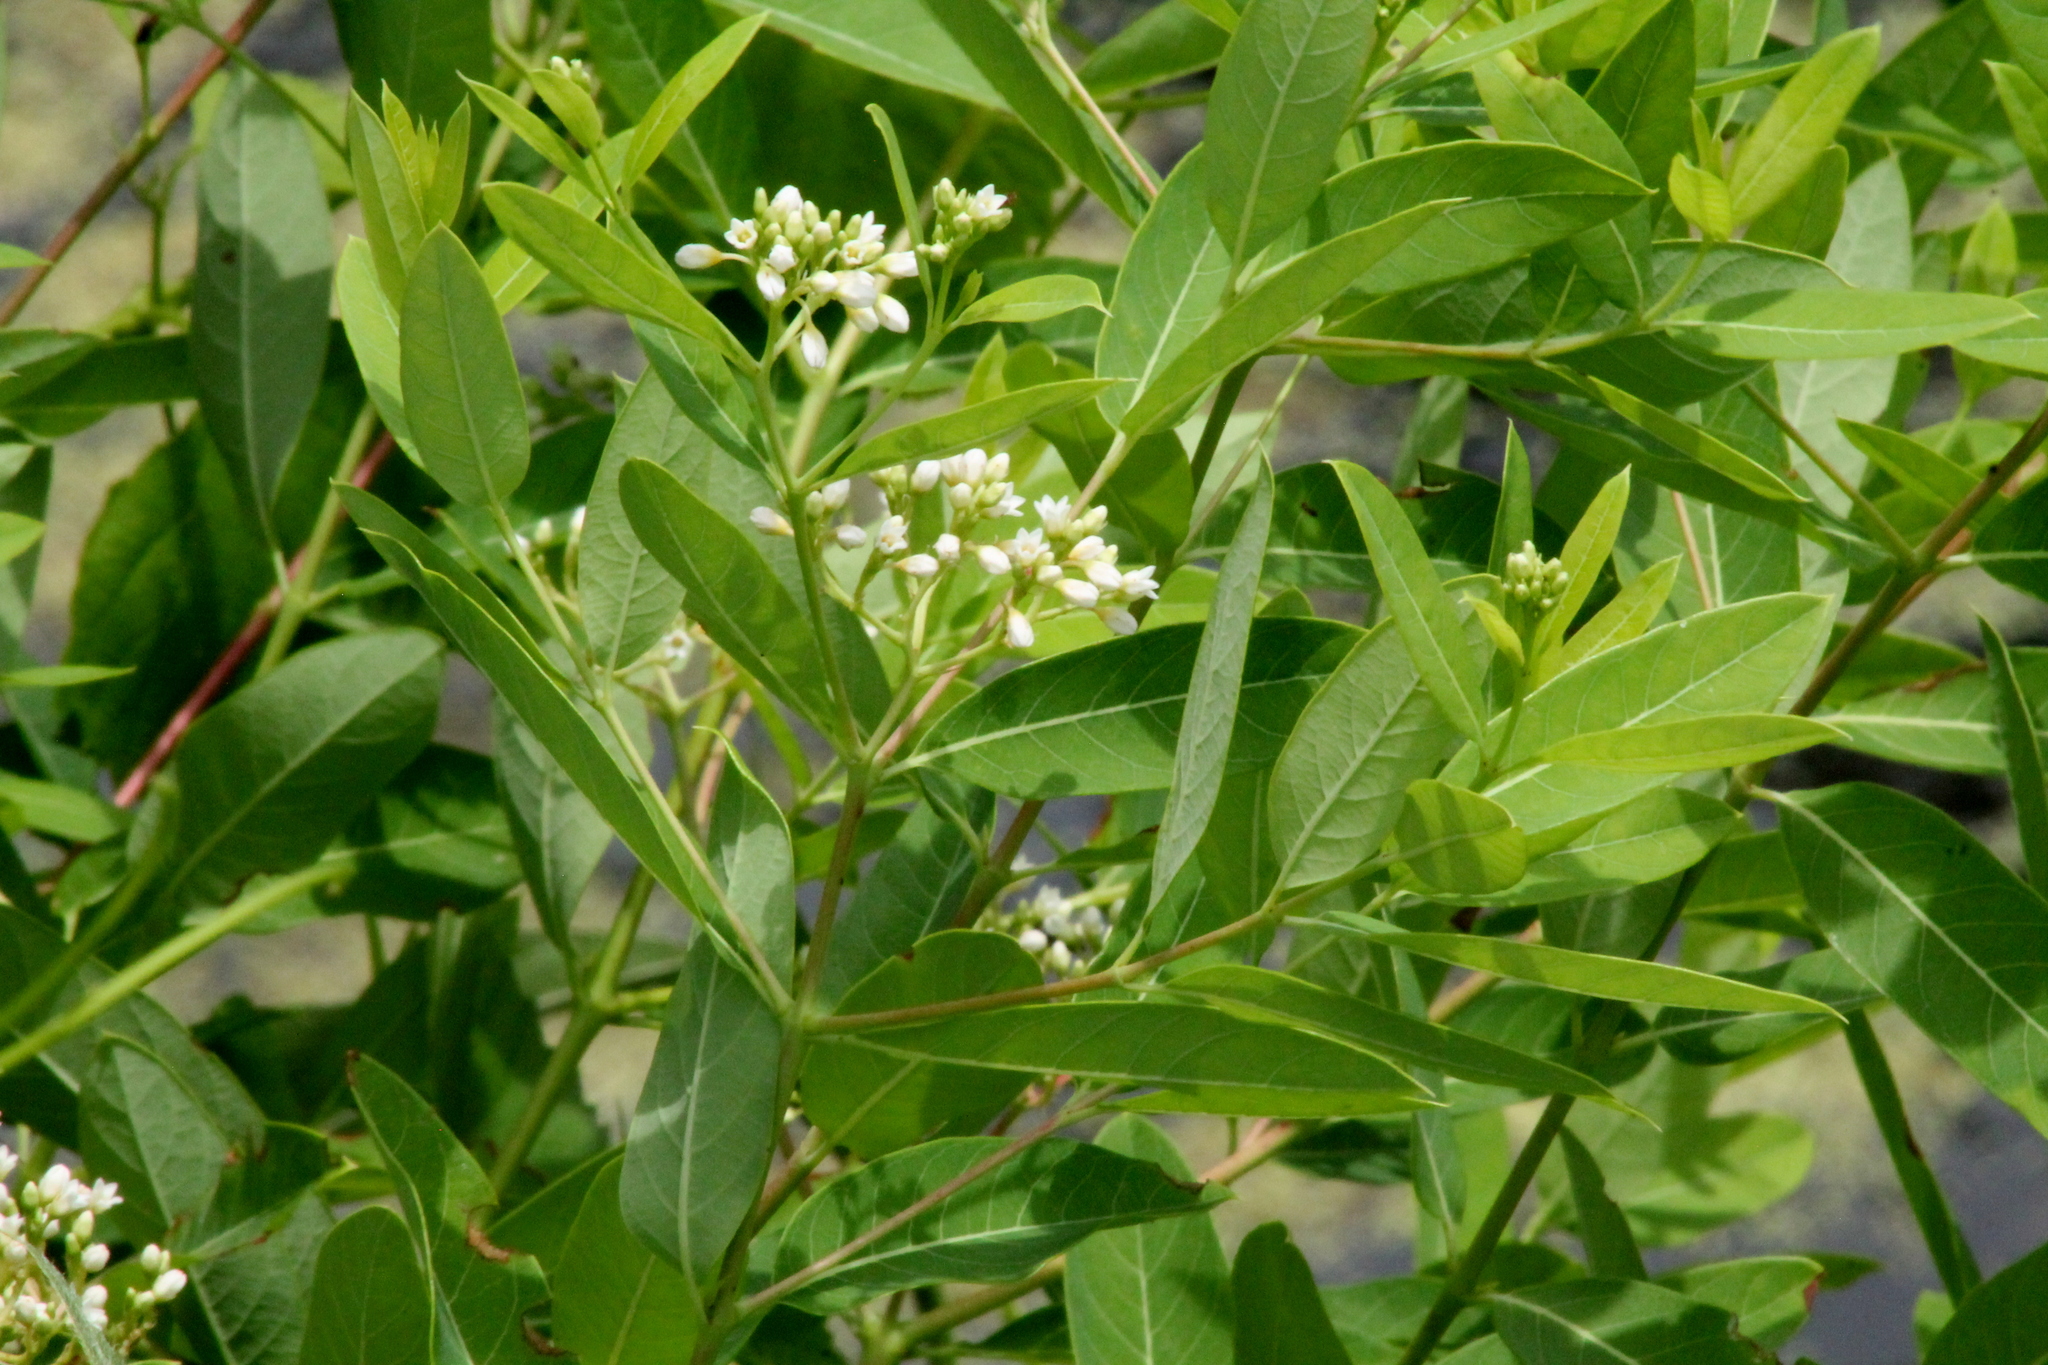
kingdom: Plantae
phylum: Tracheophyta
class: Magnoliopsida
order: Gentianales
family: Apocynaceae
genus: Apocynum
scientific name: Apocynum cannabinum
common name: Hemp dogbane
